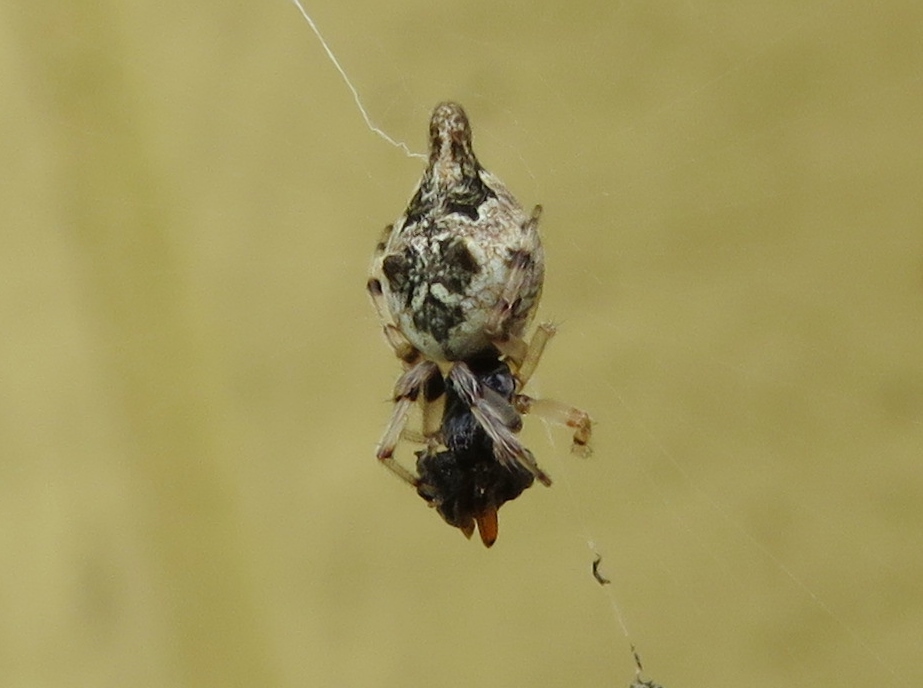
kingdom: Animalia
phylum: Arthropoda
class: Arachnida
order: Araneae
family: Araneidae
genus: Cyclosa
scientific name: Cyclosa turbinata
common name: Orb weavers
